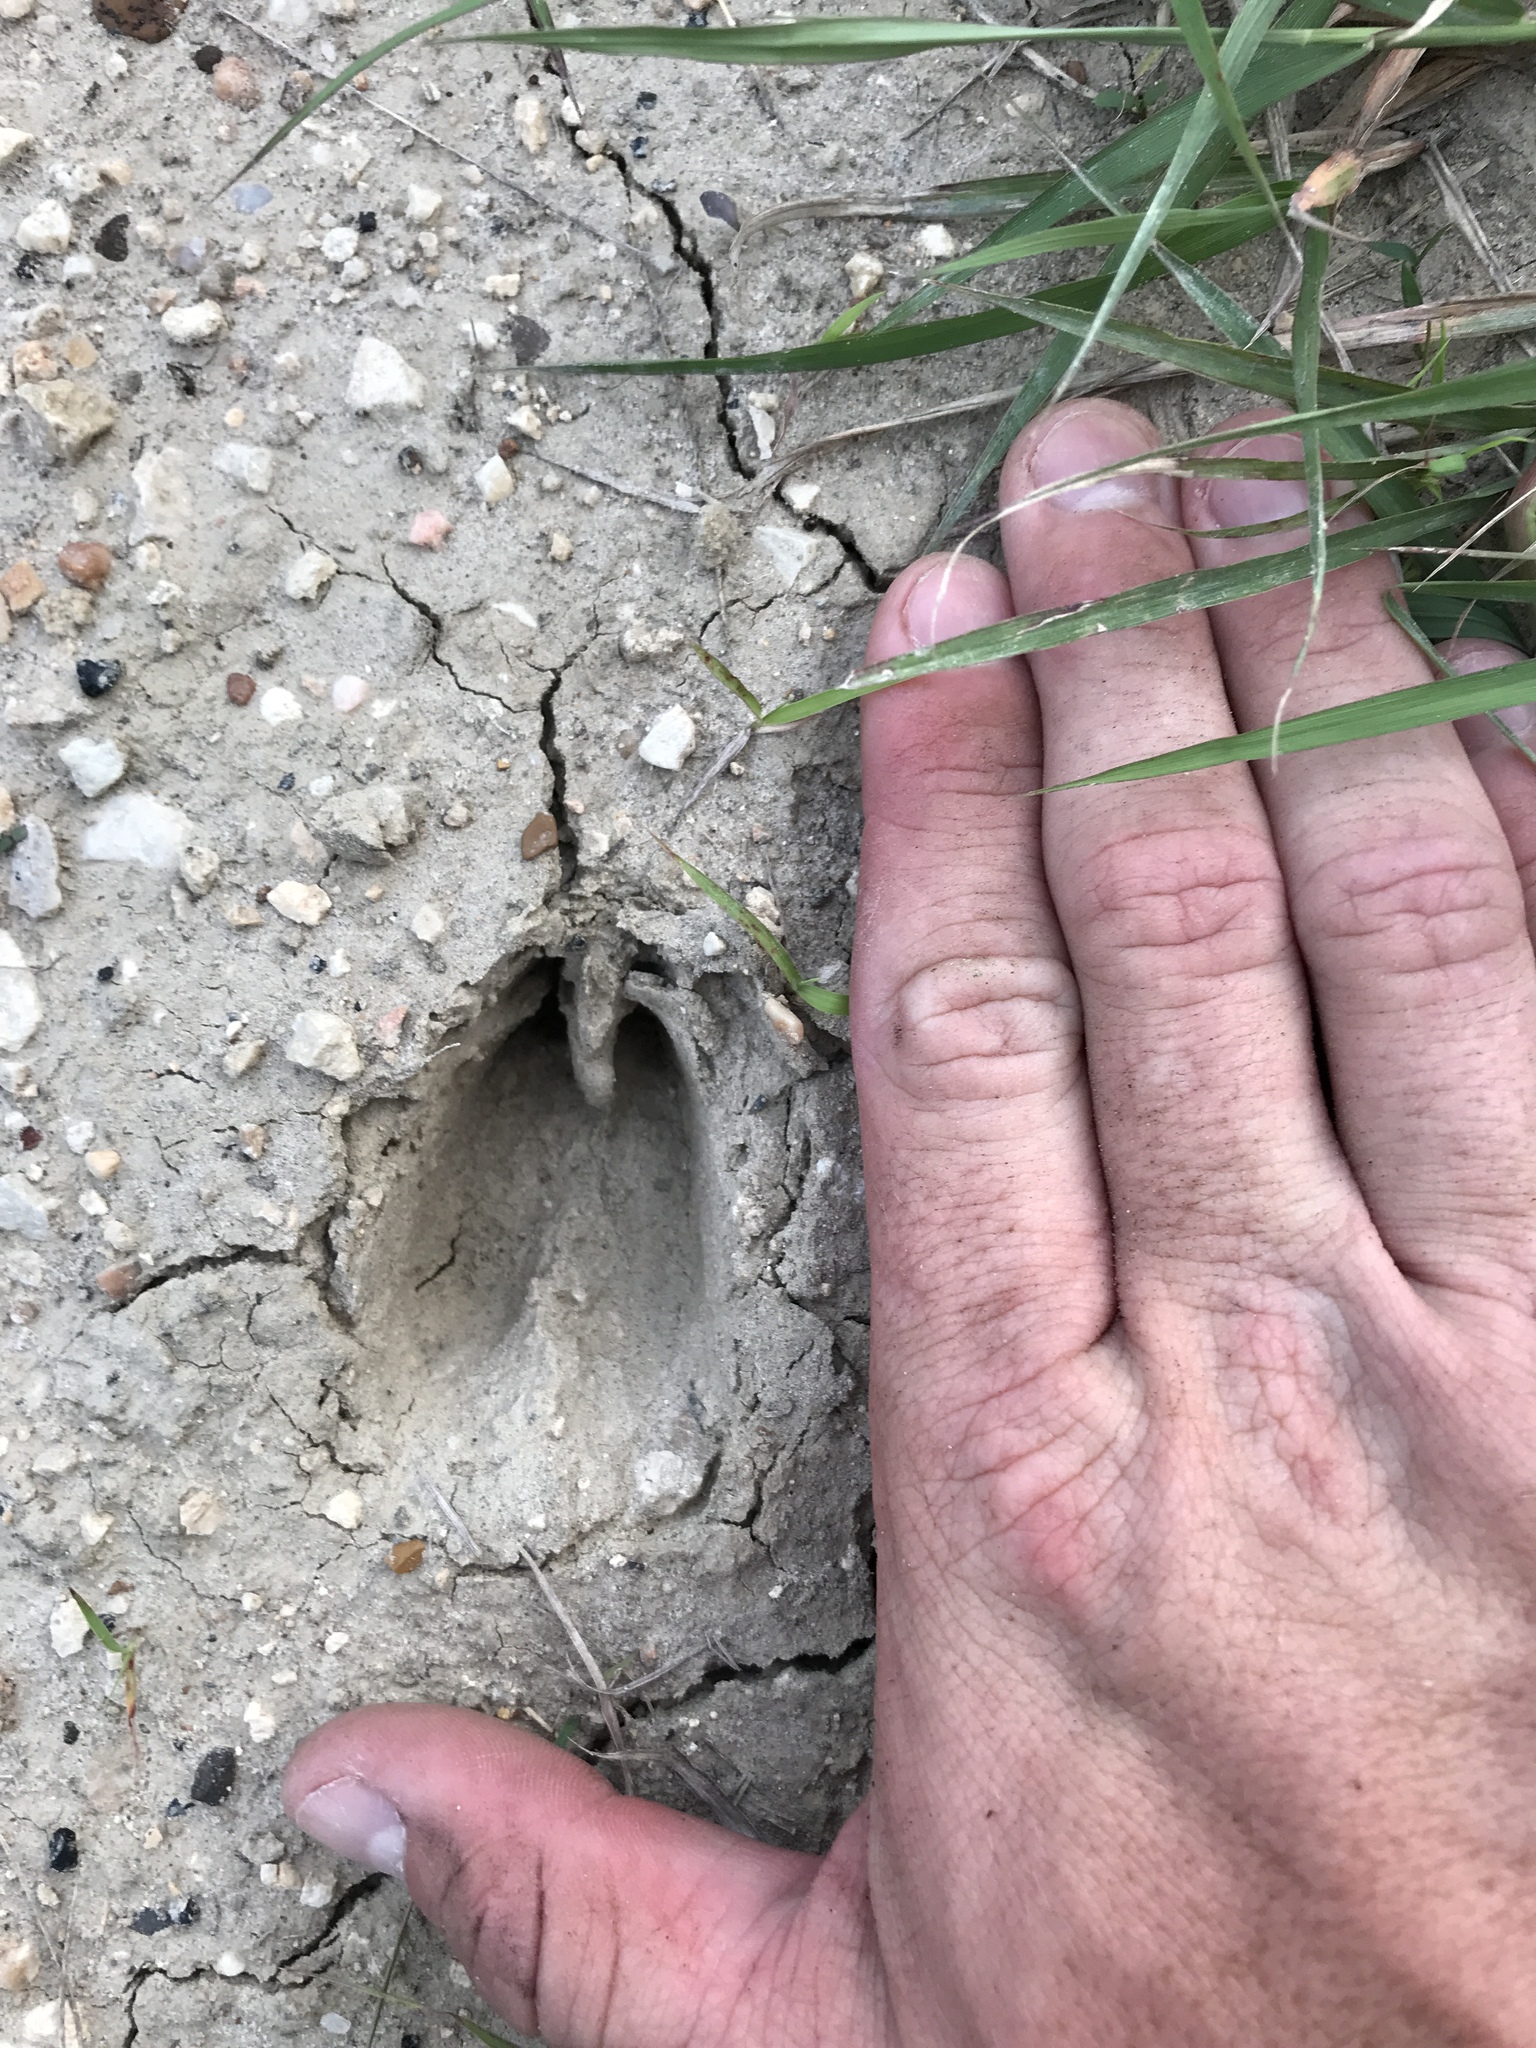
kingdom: Animalia
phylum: Chordata
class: Mammalia
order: Artiodactyla
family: Cervidae
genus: Odocoileus
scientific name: Odocoileus virginianus
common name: White-tailed deer
